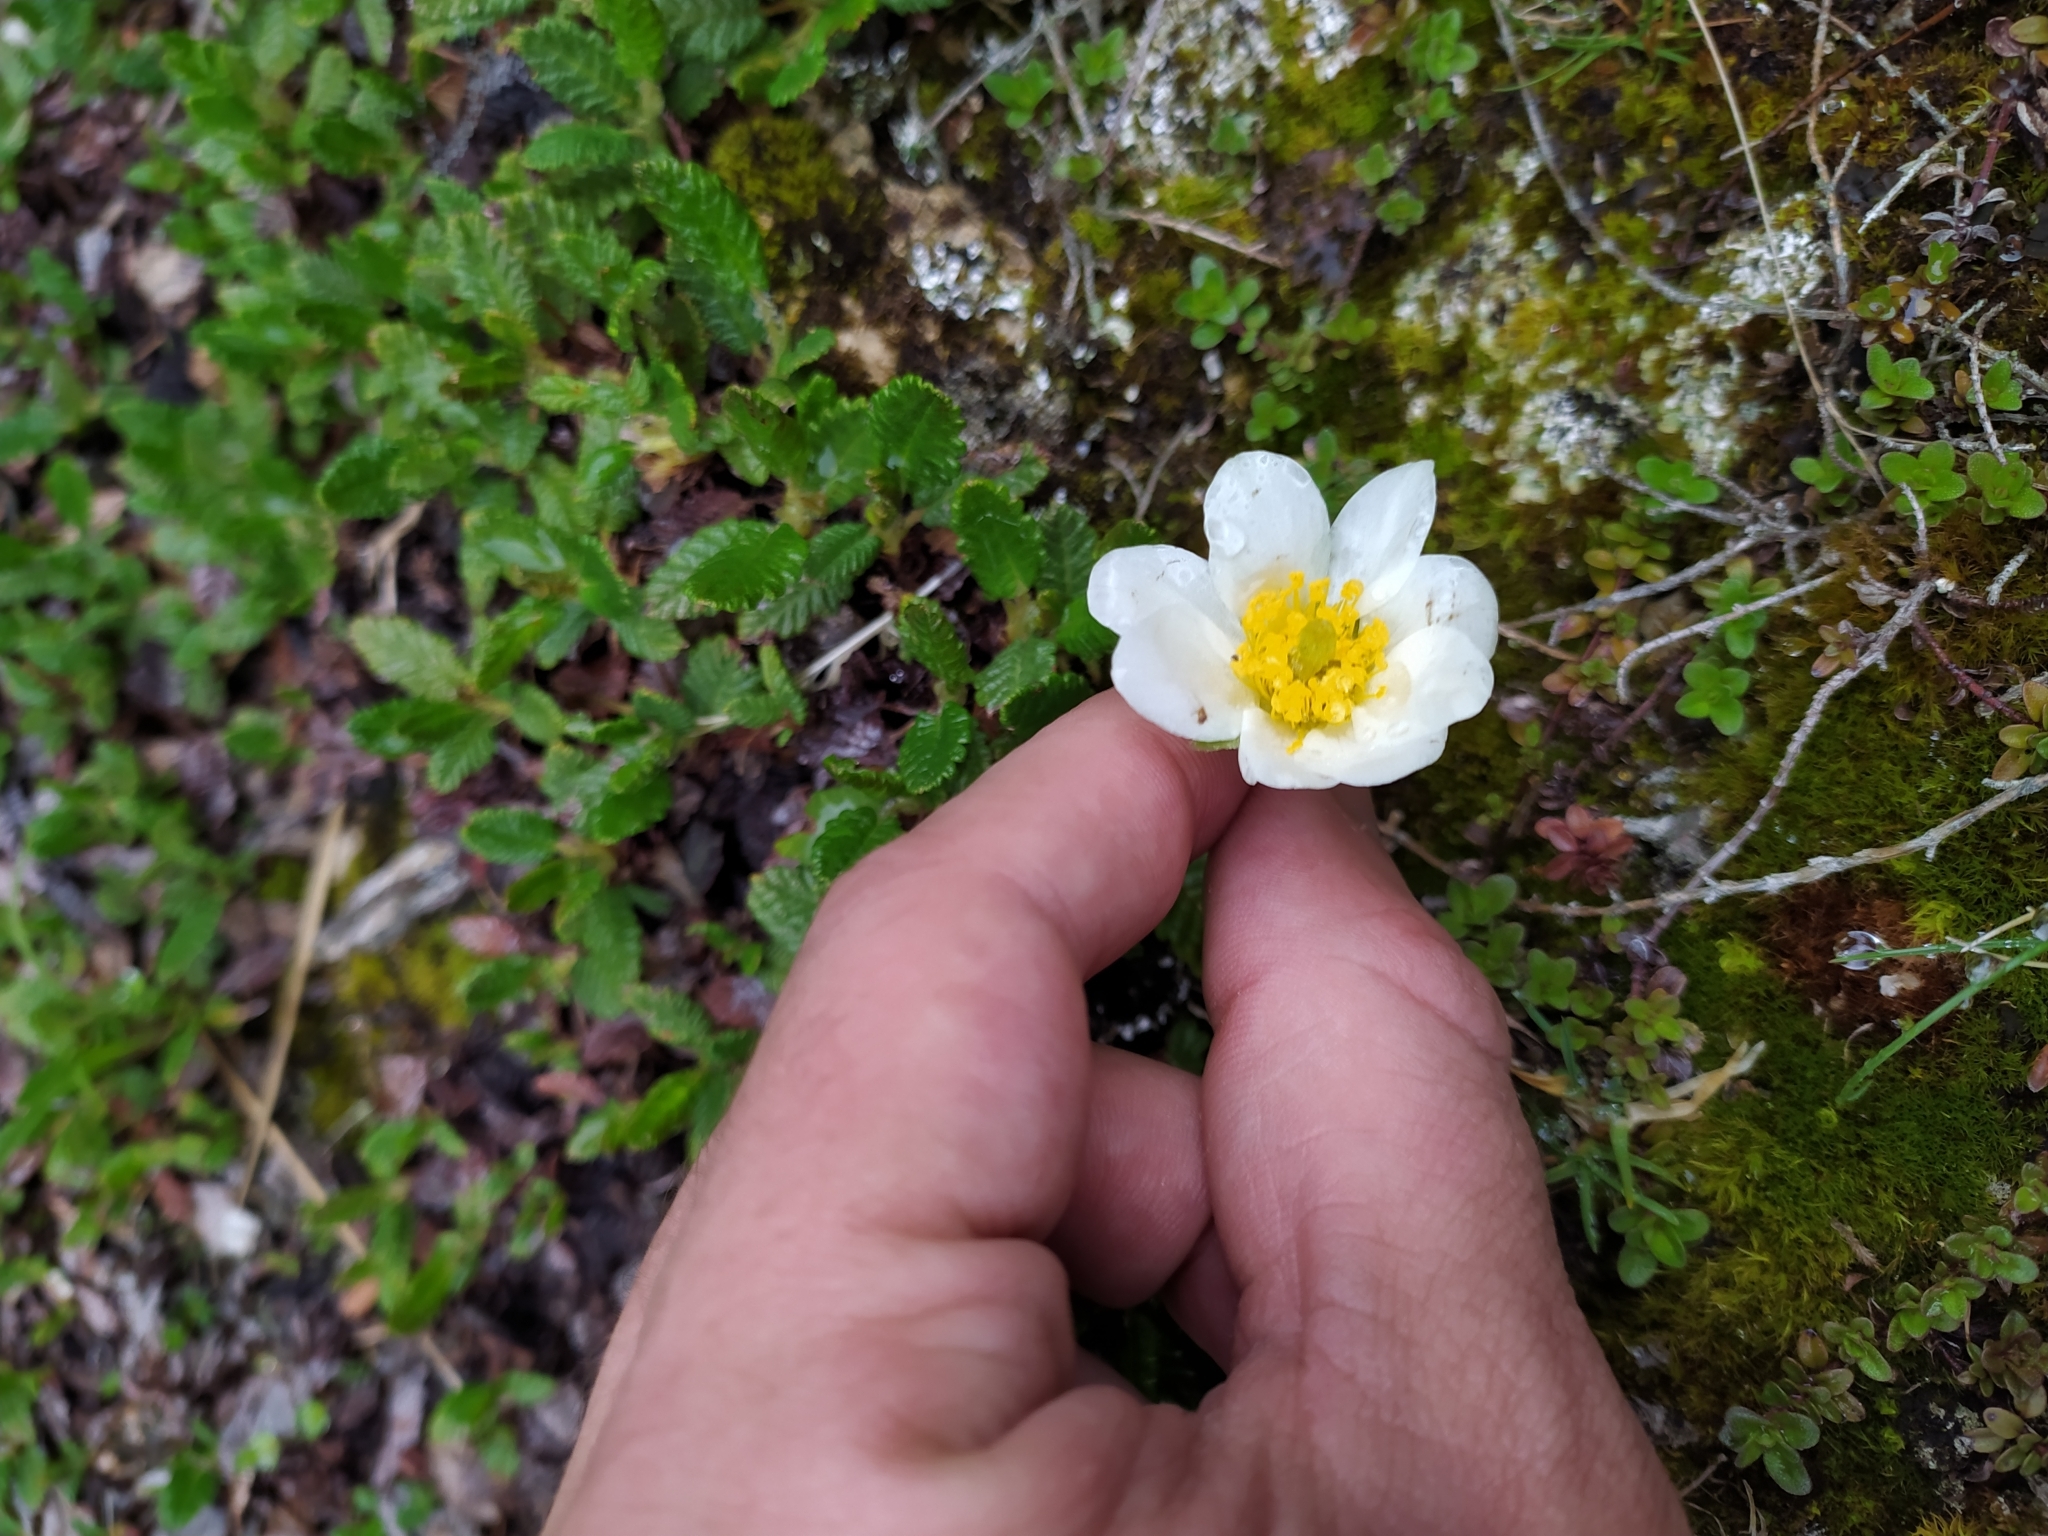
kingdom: Plantae
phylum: Tracheophyta
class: Magnoliopsida
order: Rosales
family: Rosaceae
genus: Dryas
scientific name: Dryas octopetala
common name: Eight-petal mountain-avens
